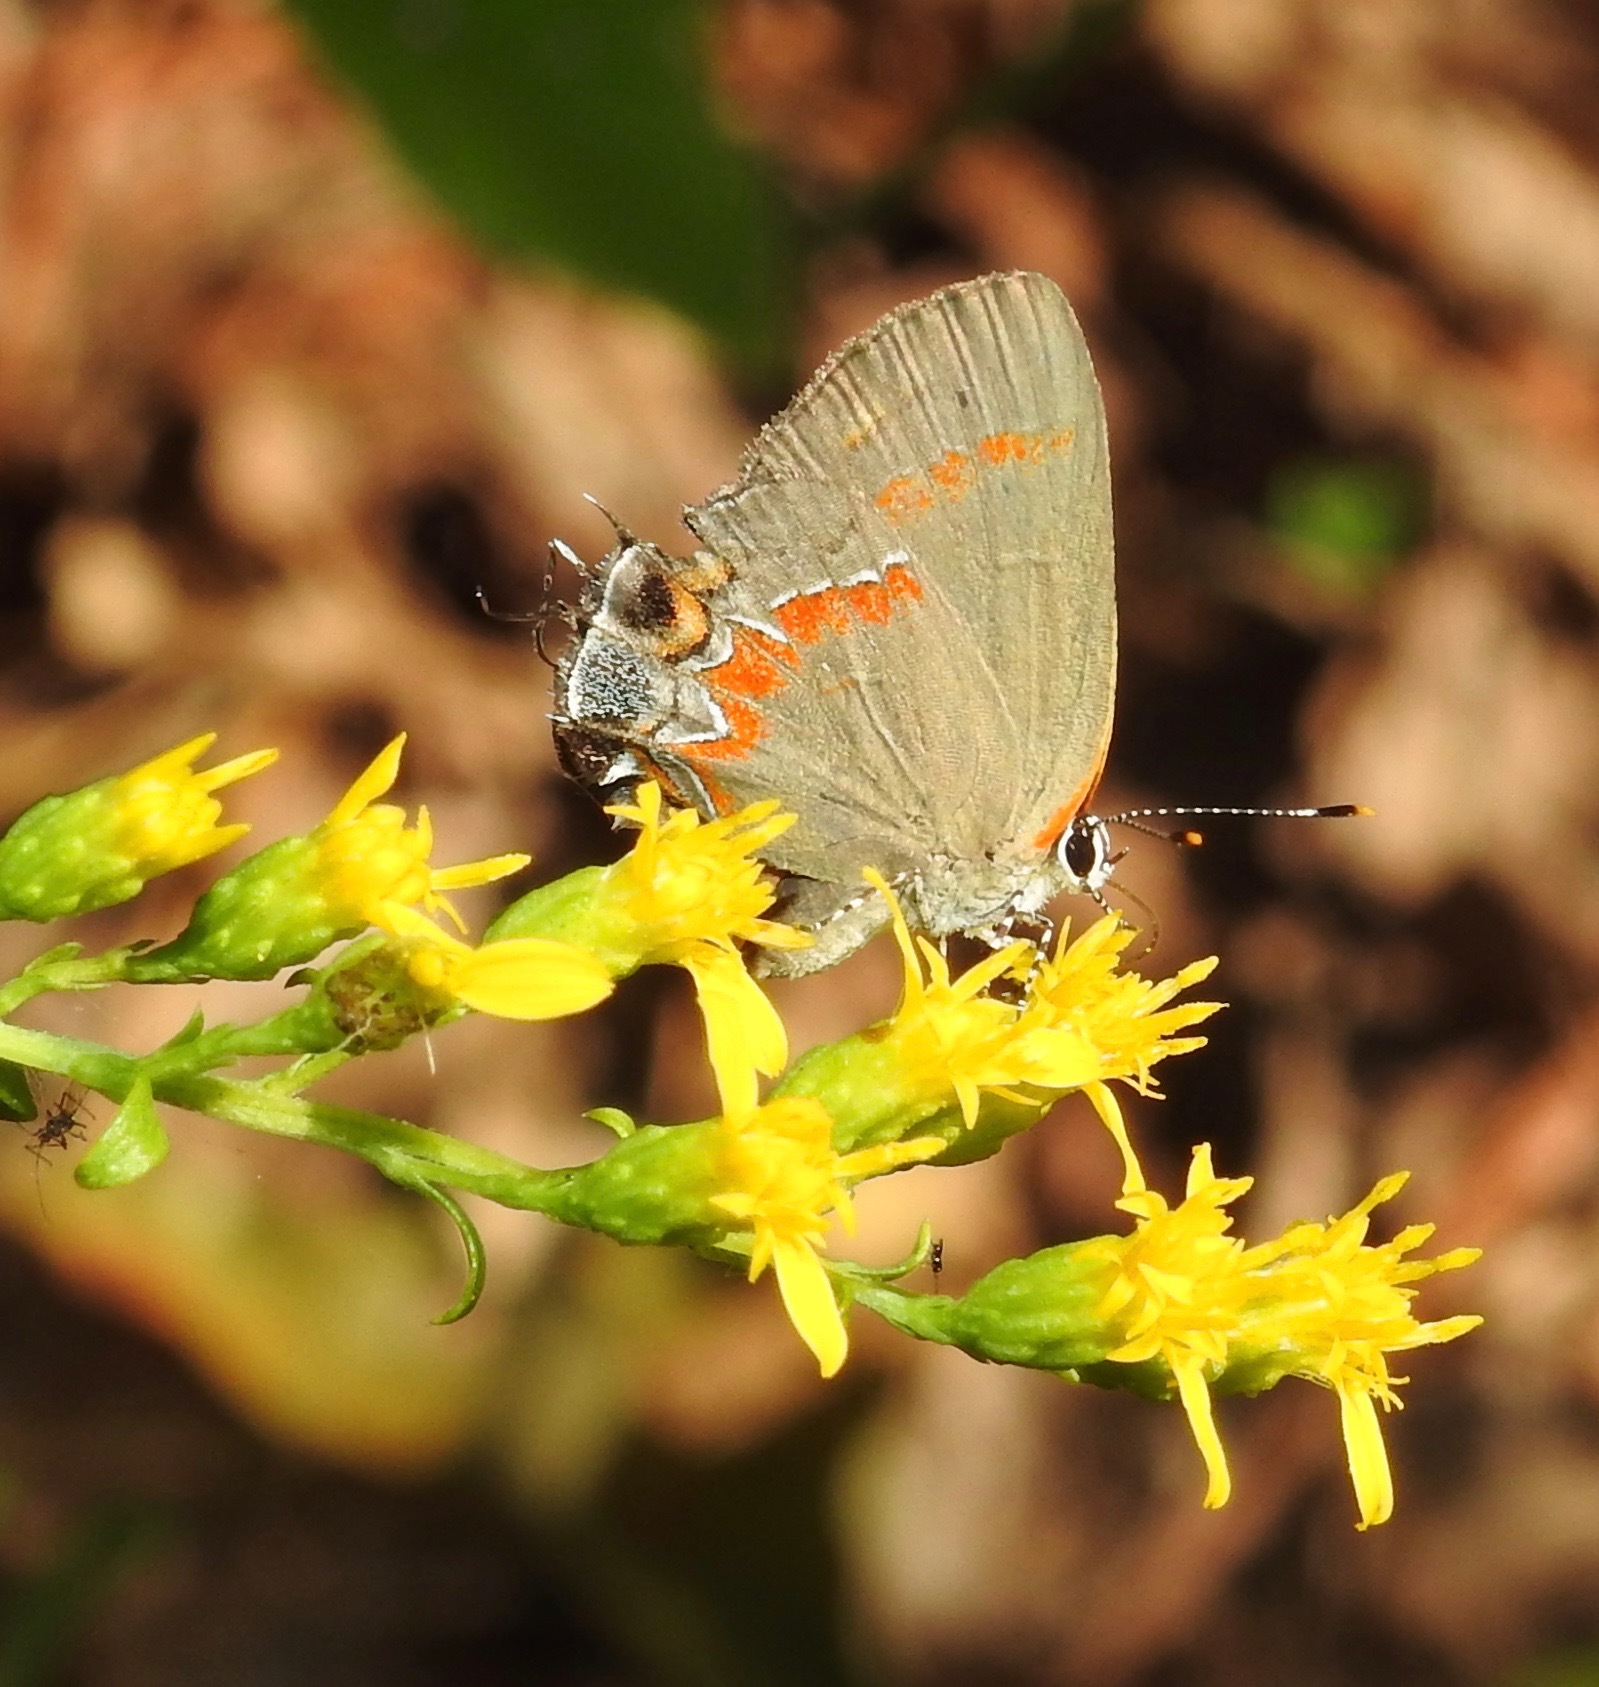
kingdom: Animalia
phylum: Arthropoda
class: Insecta
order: Lepidoptera
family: Lycaenidae
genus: Calycopis
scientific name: Calycopis cecrops
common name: Red-banded hairstreak
